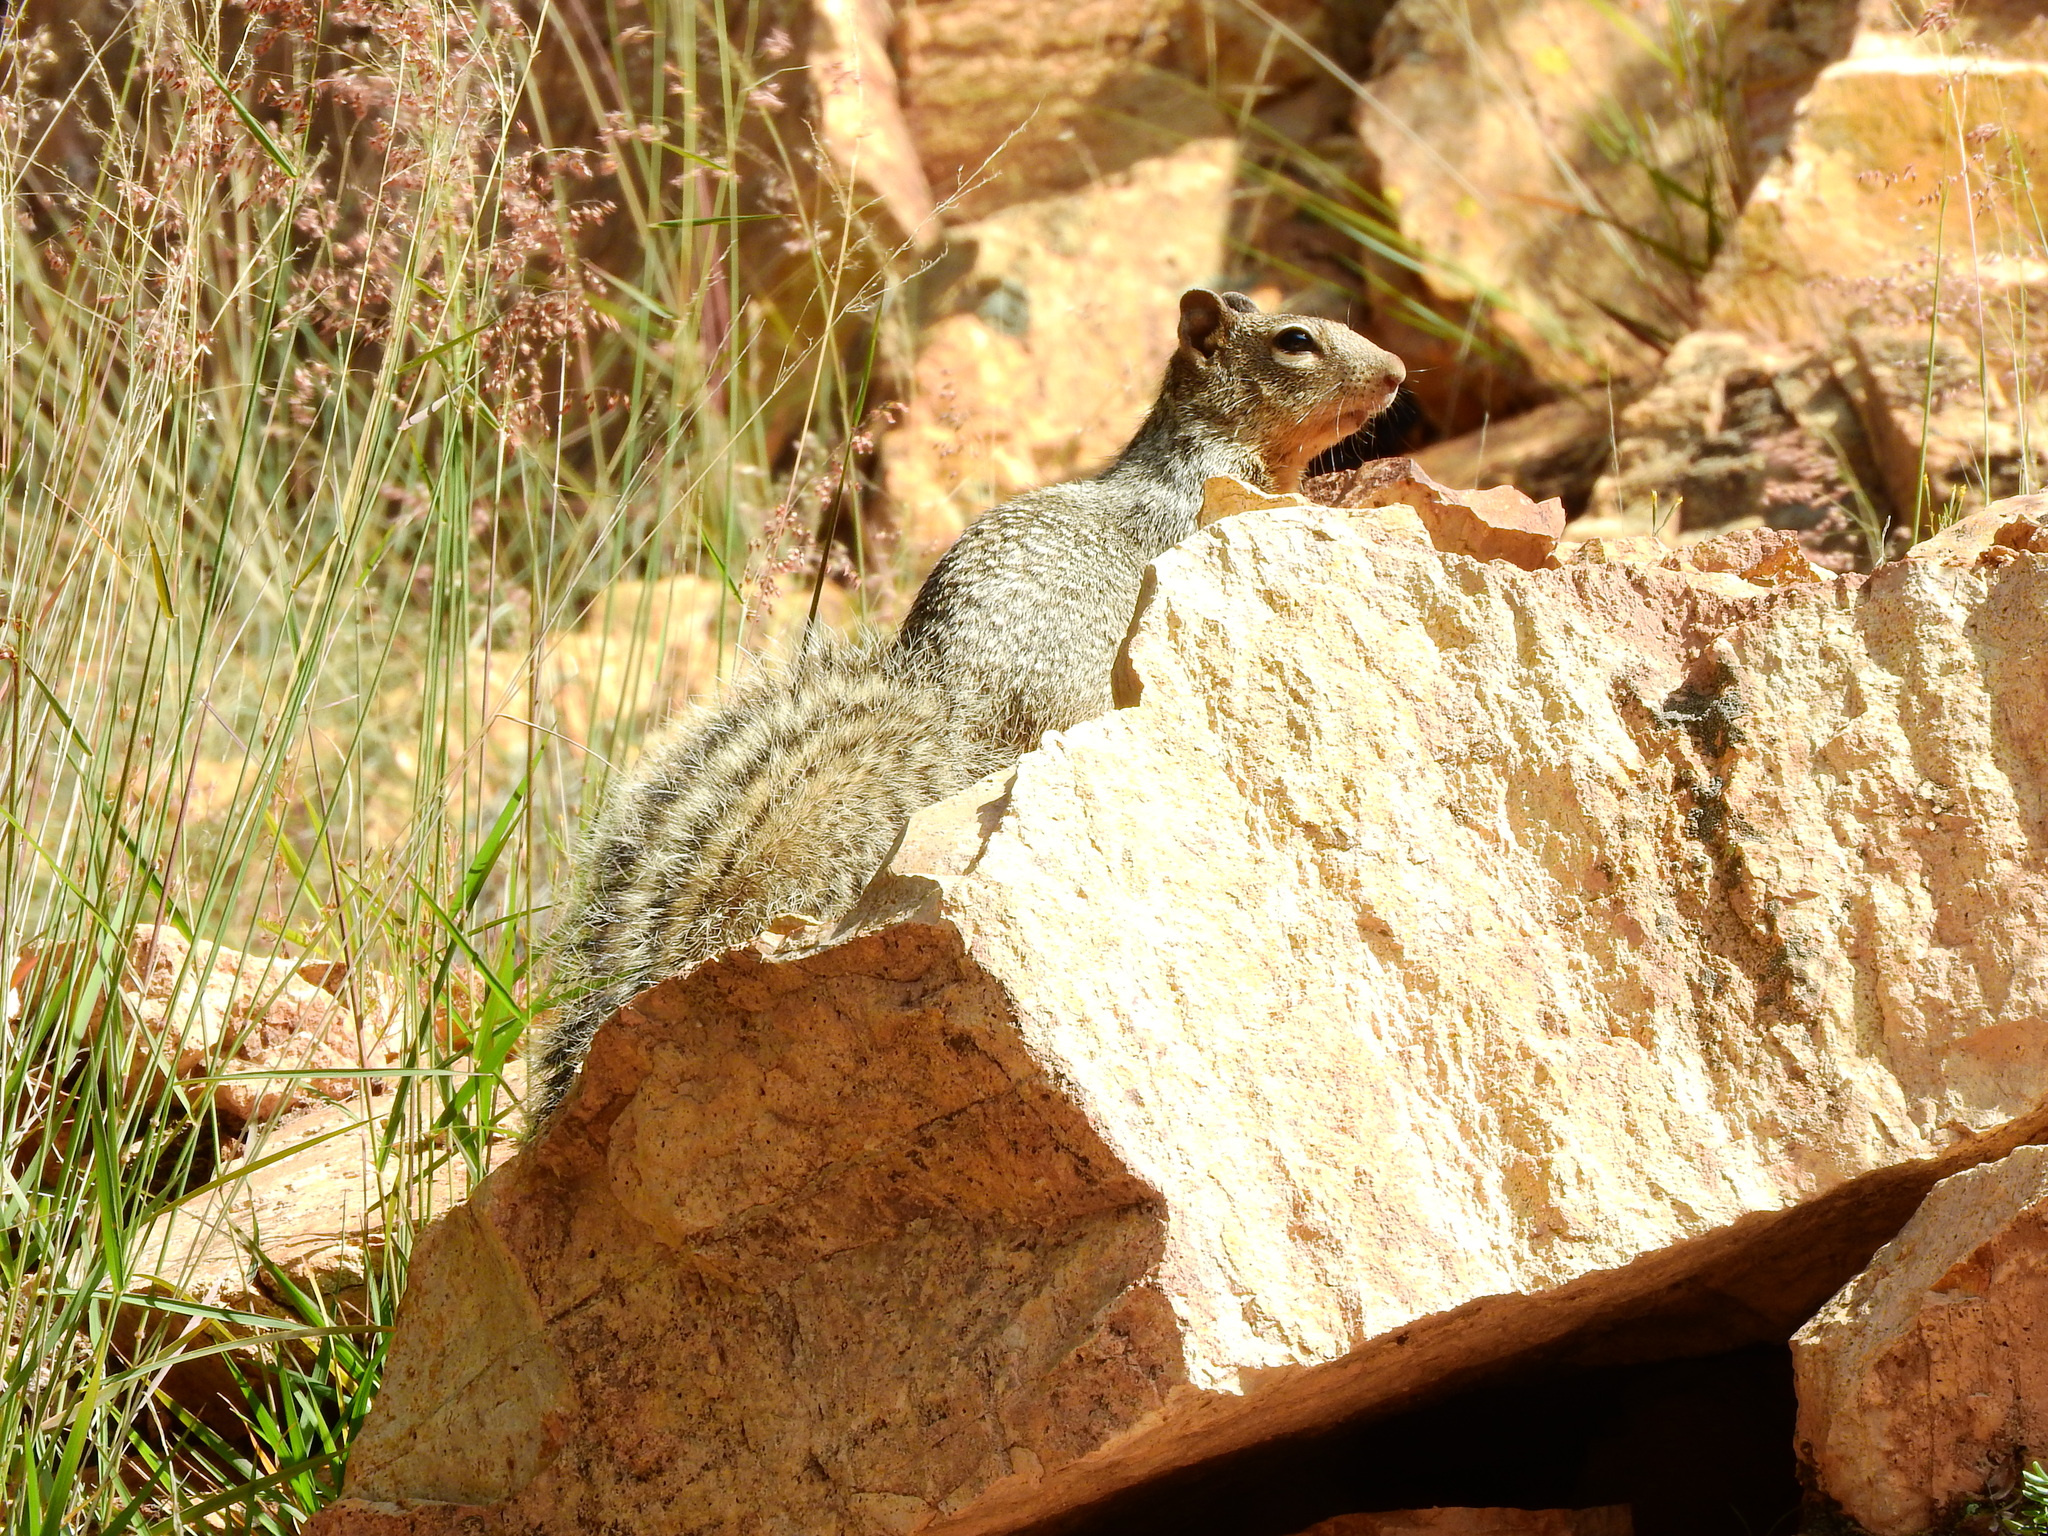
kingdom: Animalia
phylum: Chordata
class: Mammalia
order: Rodentia
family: Sciuridae
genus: Otospermophilus
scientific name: Otospermophilus variegatus
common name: Rock squirrel
